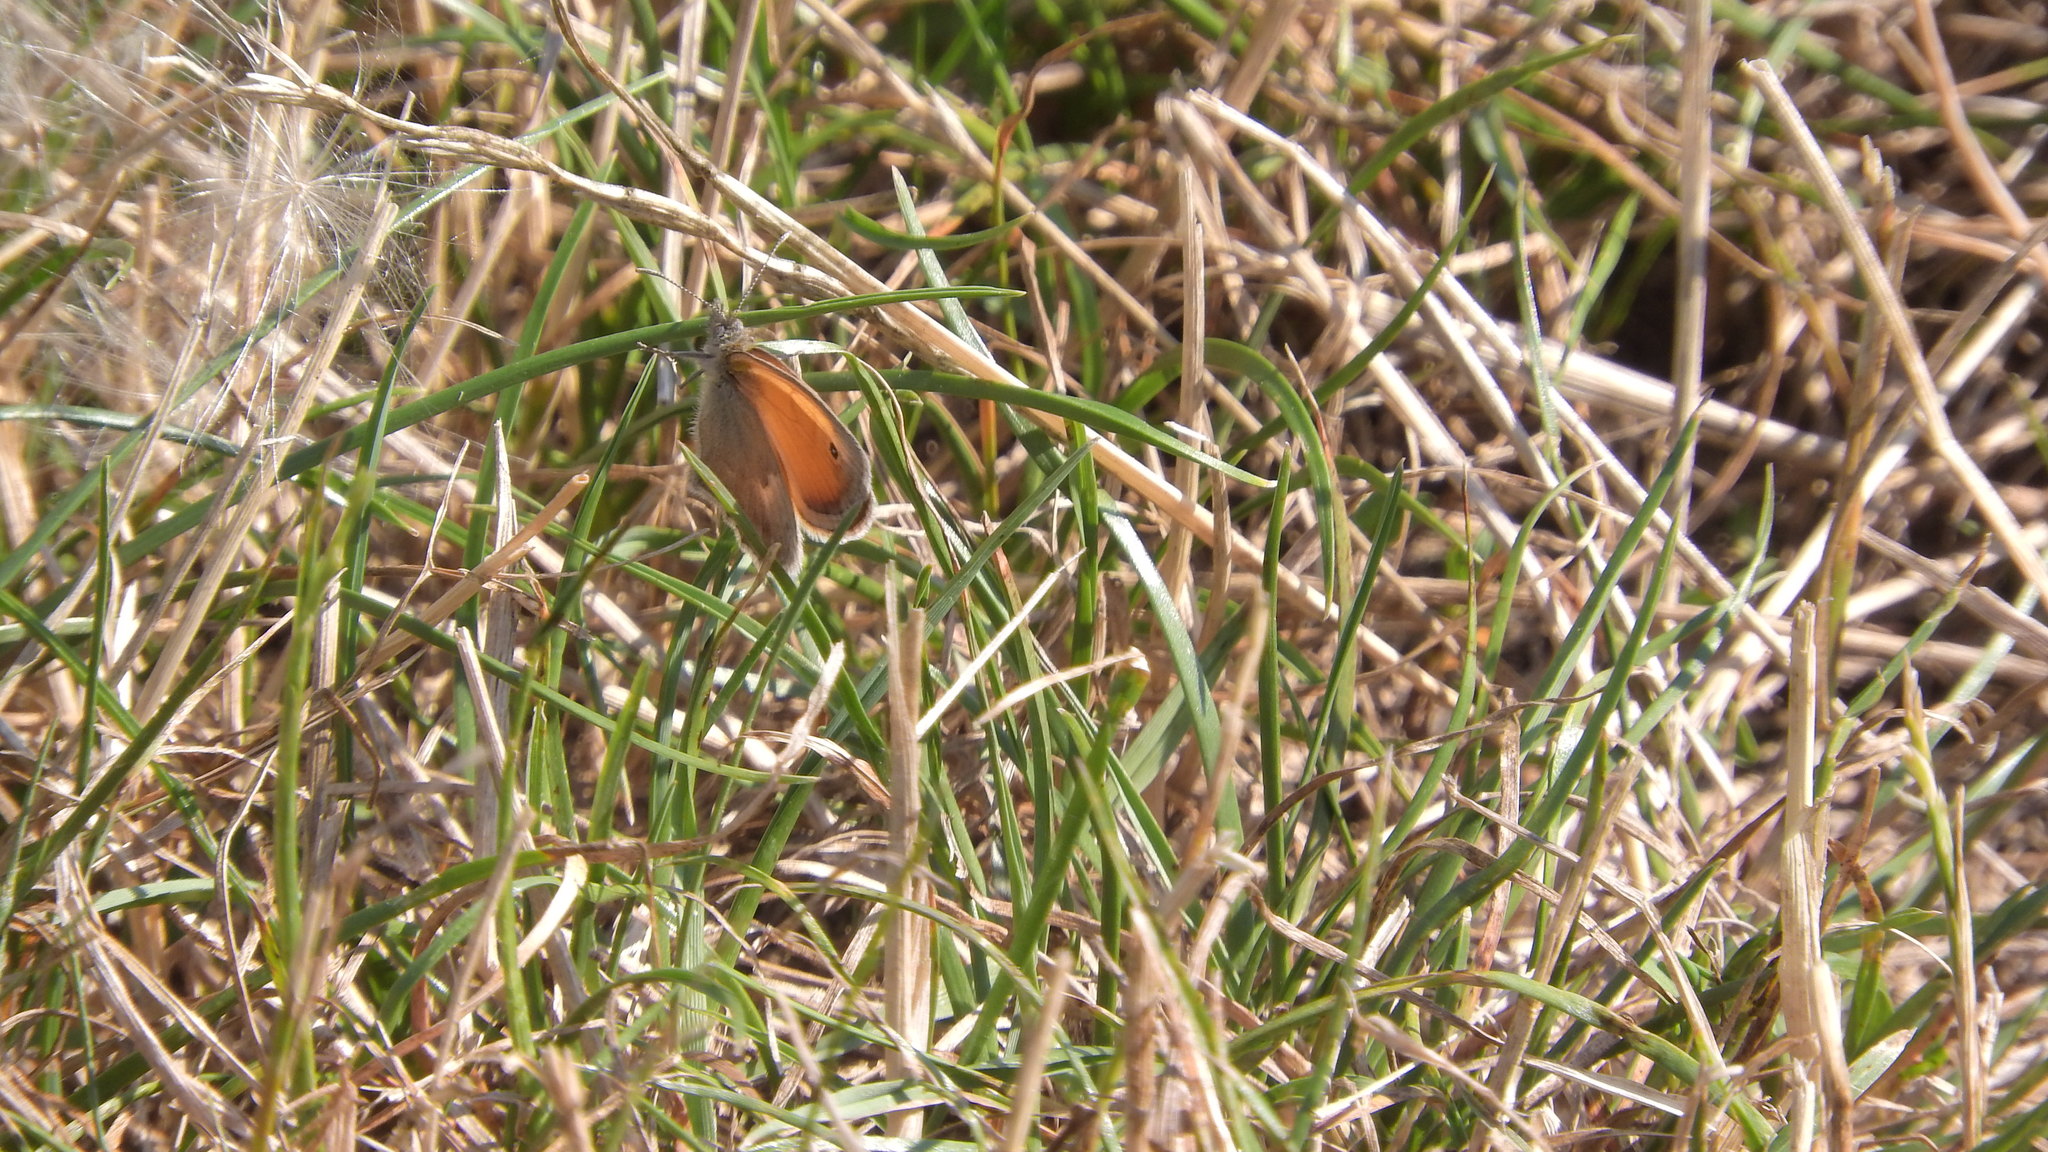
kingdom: Animalia
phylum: Arthropoda
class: Insecta
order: Lepidoptera
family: Nymphalidae
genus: Coenonympha
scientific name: Coenonympha pamphilus
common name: Small heath
